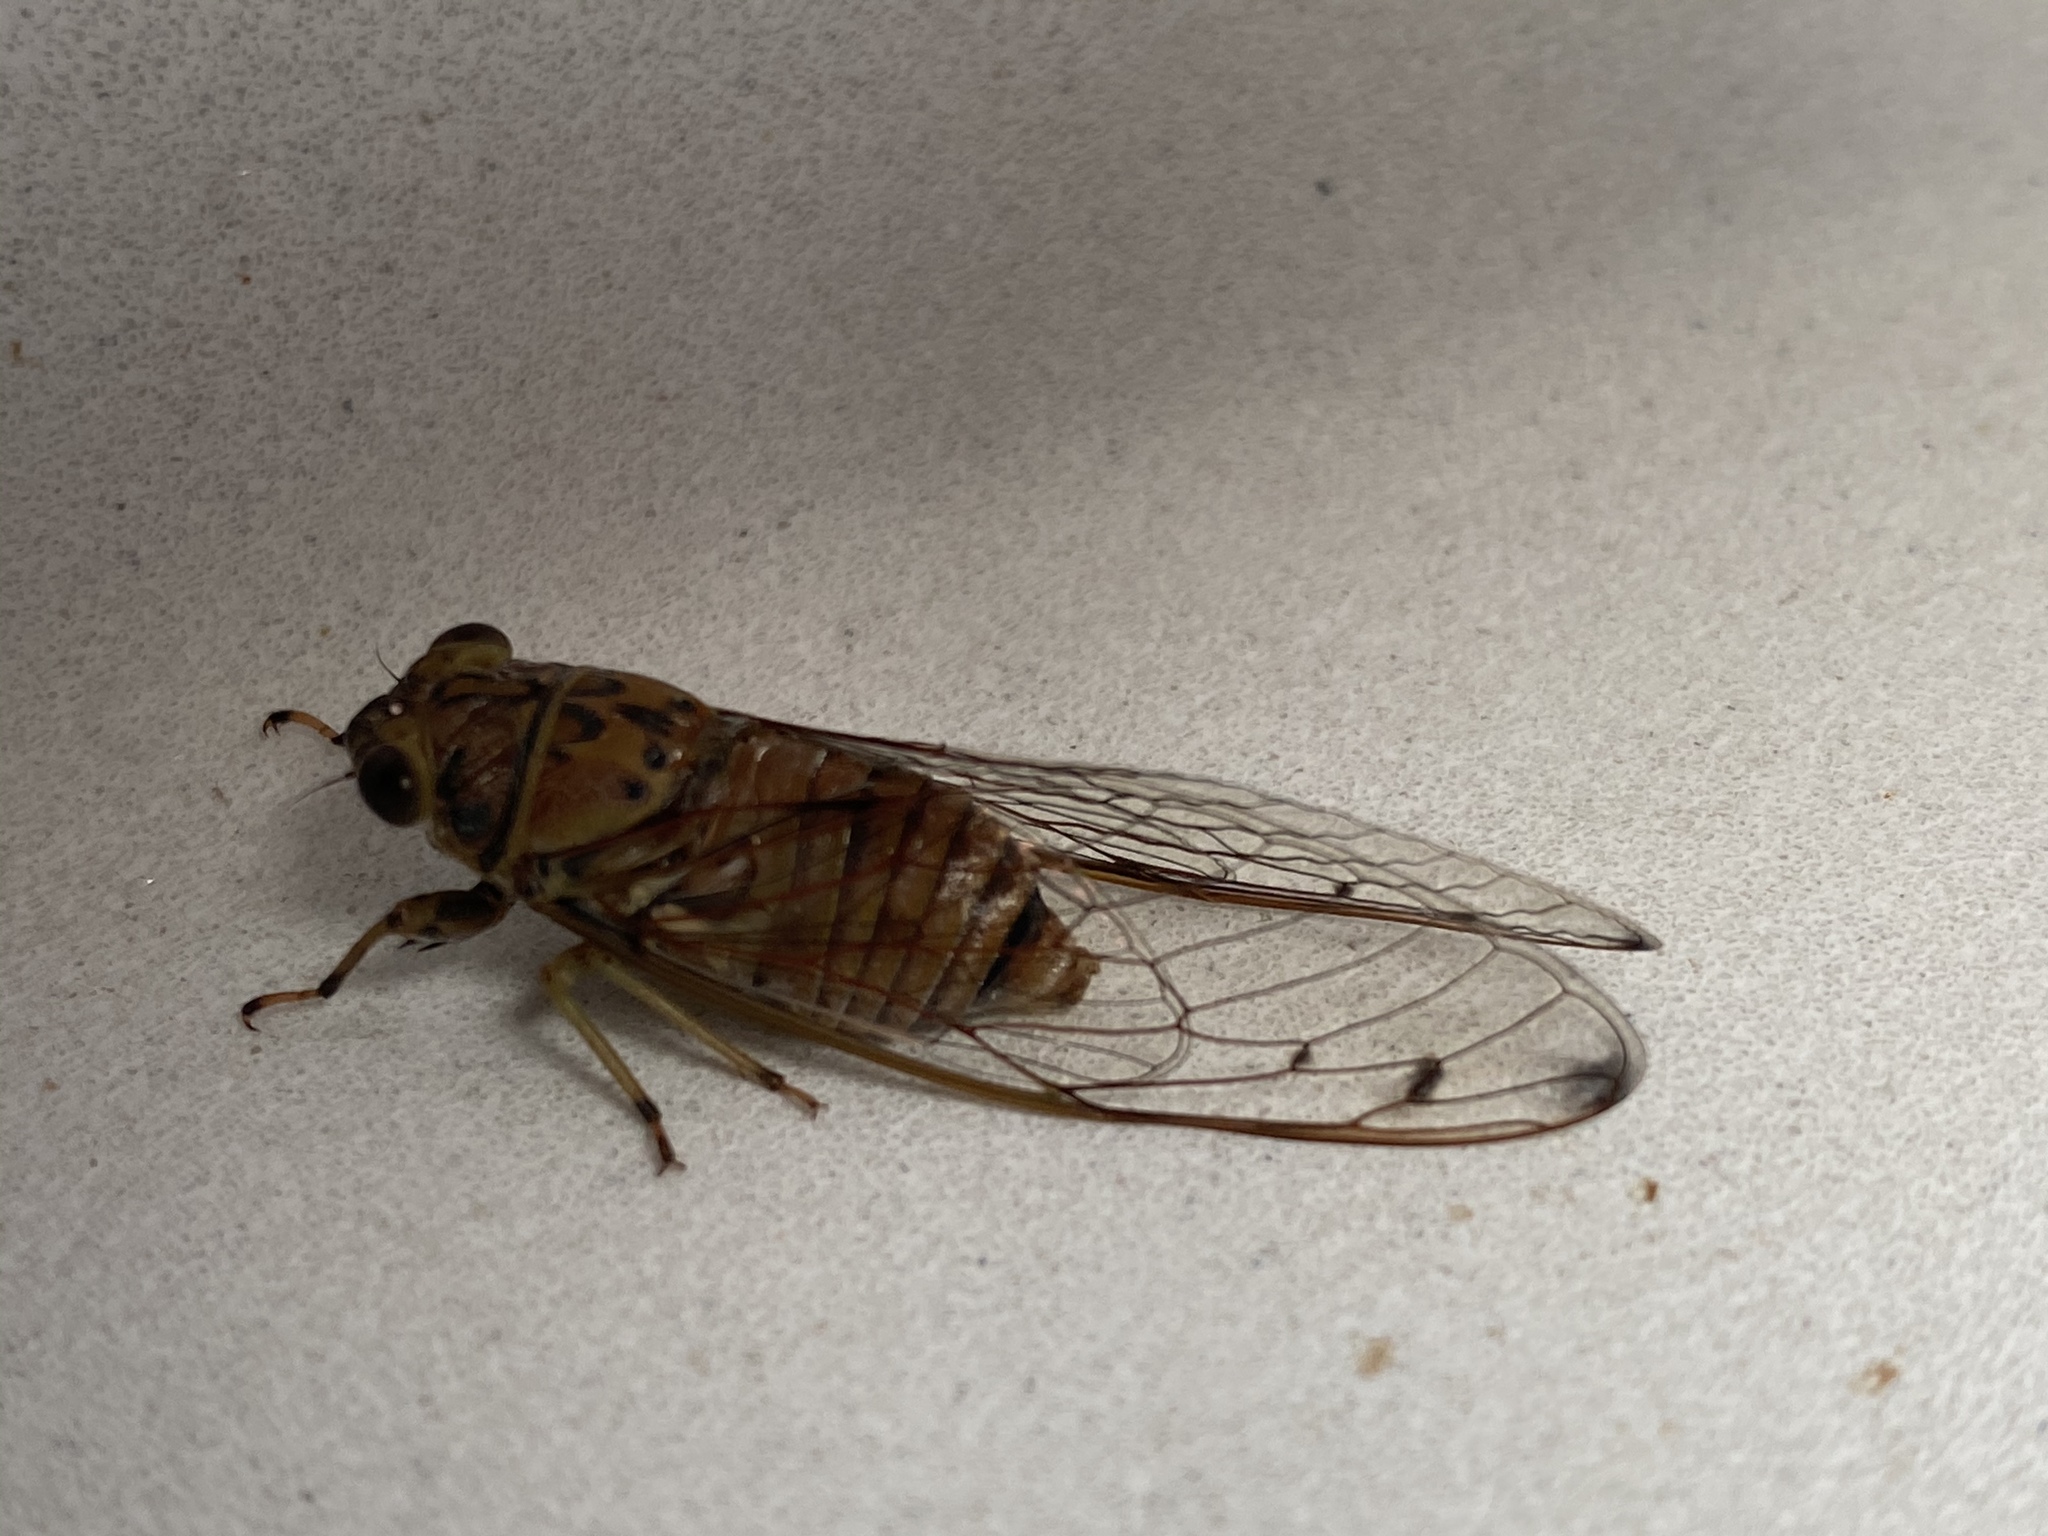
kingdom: Animalia
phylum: Arthropoda
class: Insecta
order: Hemiptera
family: Cicadidae
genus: Tamasa
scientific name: Tamasa tristigma
